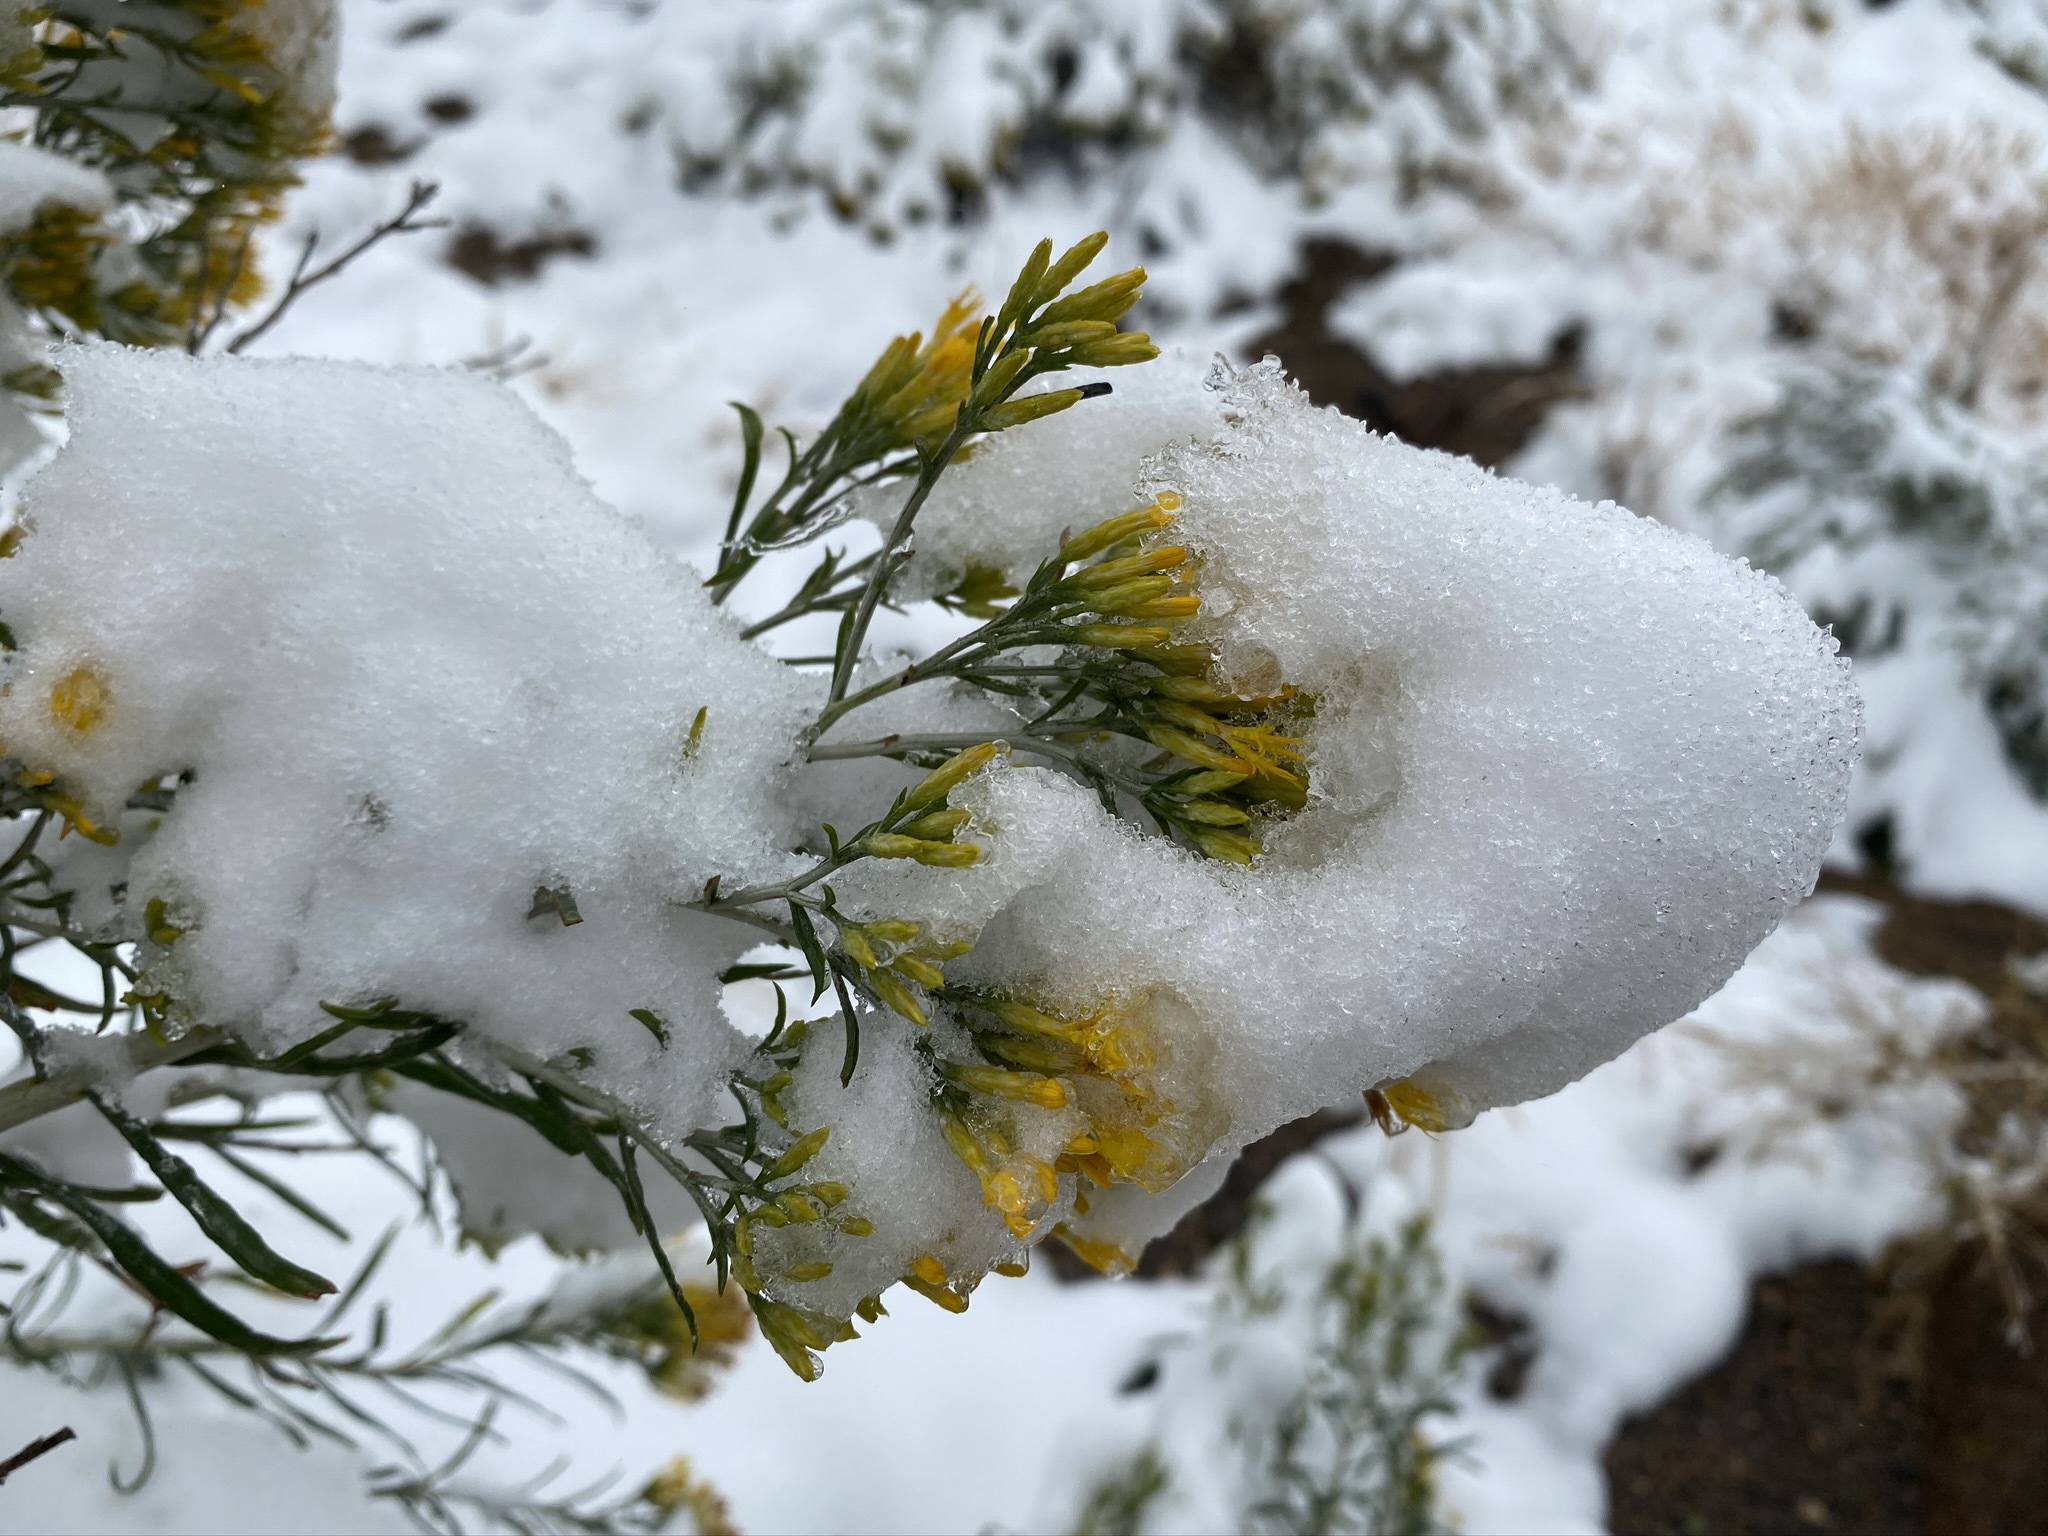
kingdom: Plantae
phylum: Tracheophyta
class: Magnoliopsida
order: Asterales
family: Asteraceae
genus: Ericameria
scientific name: Ericameria nauseosa
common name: Rubber rabbitbrush
